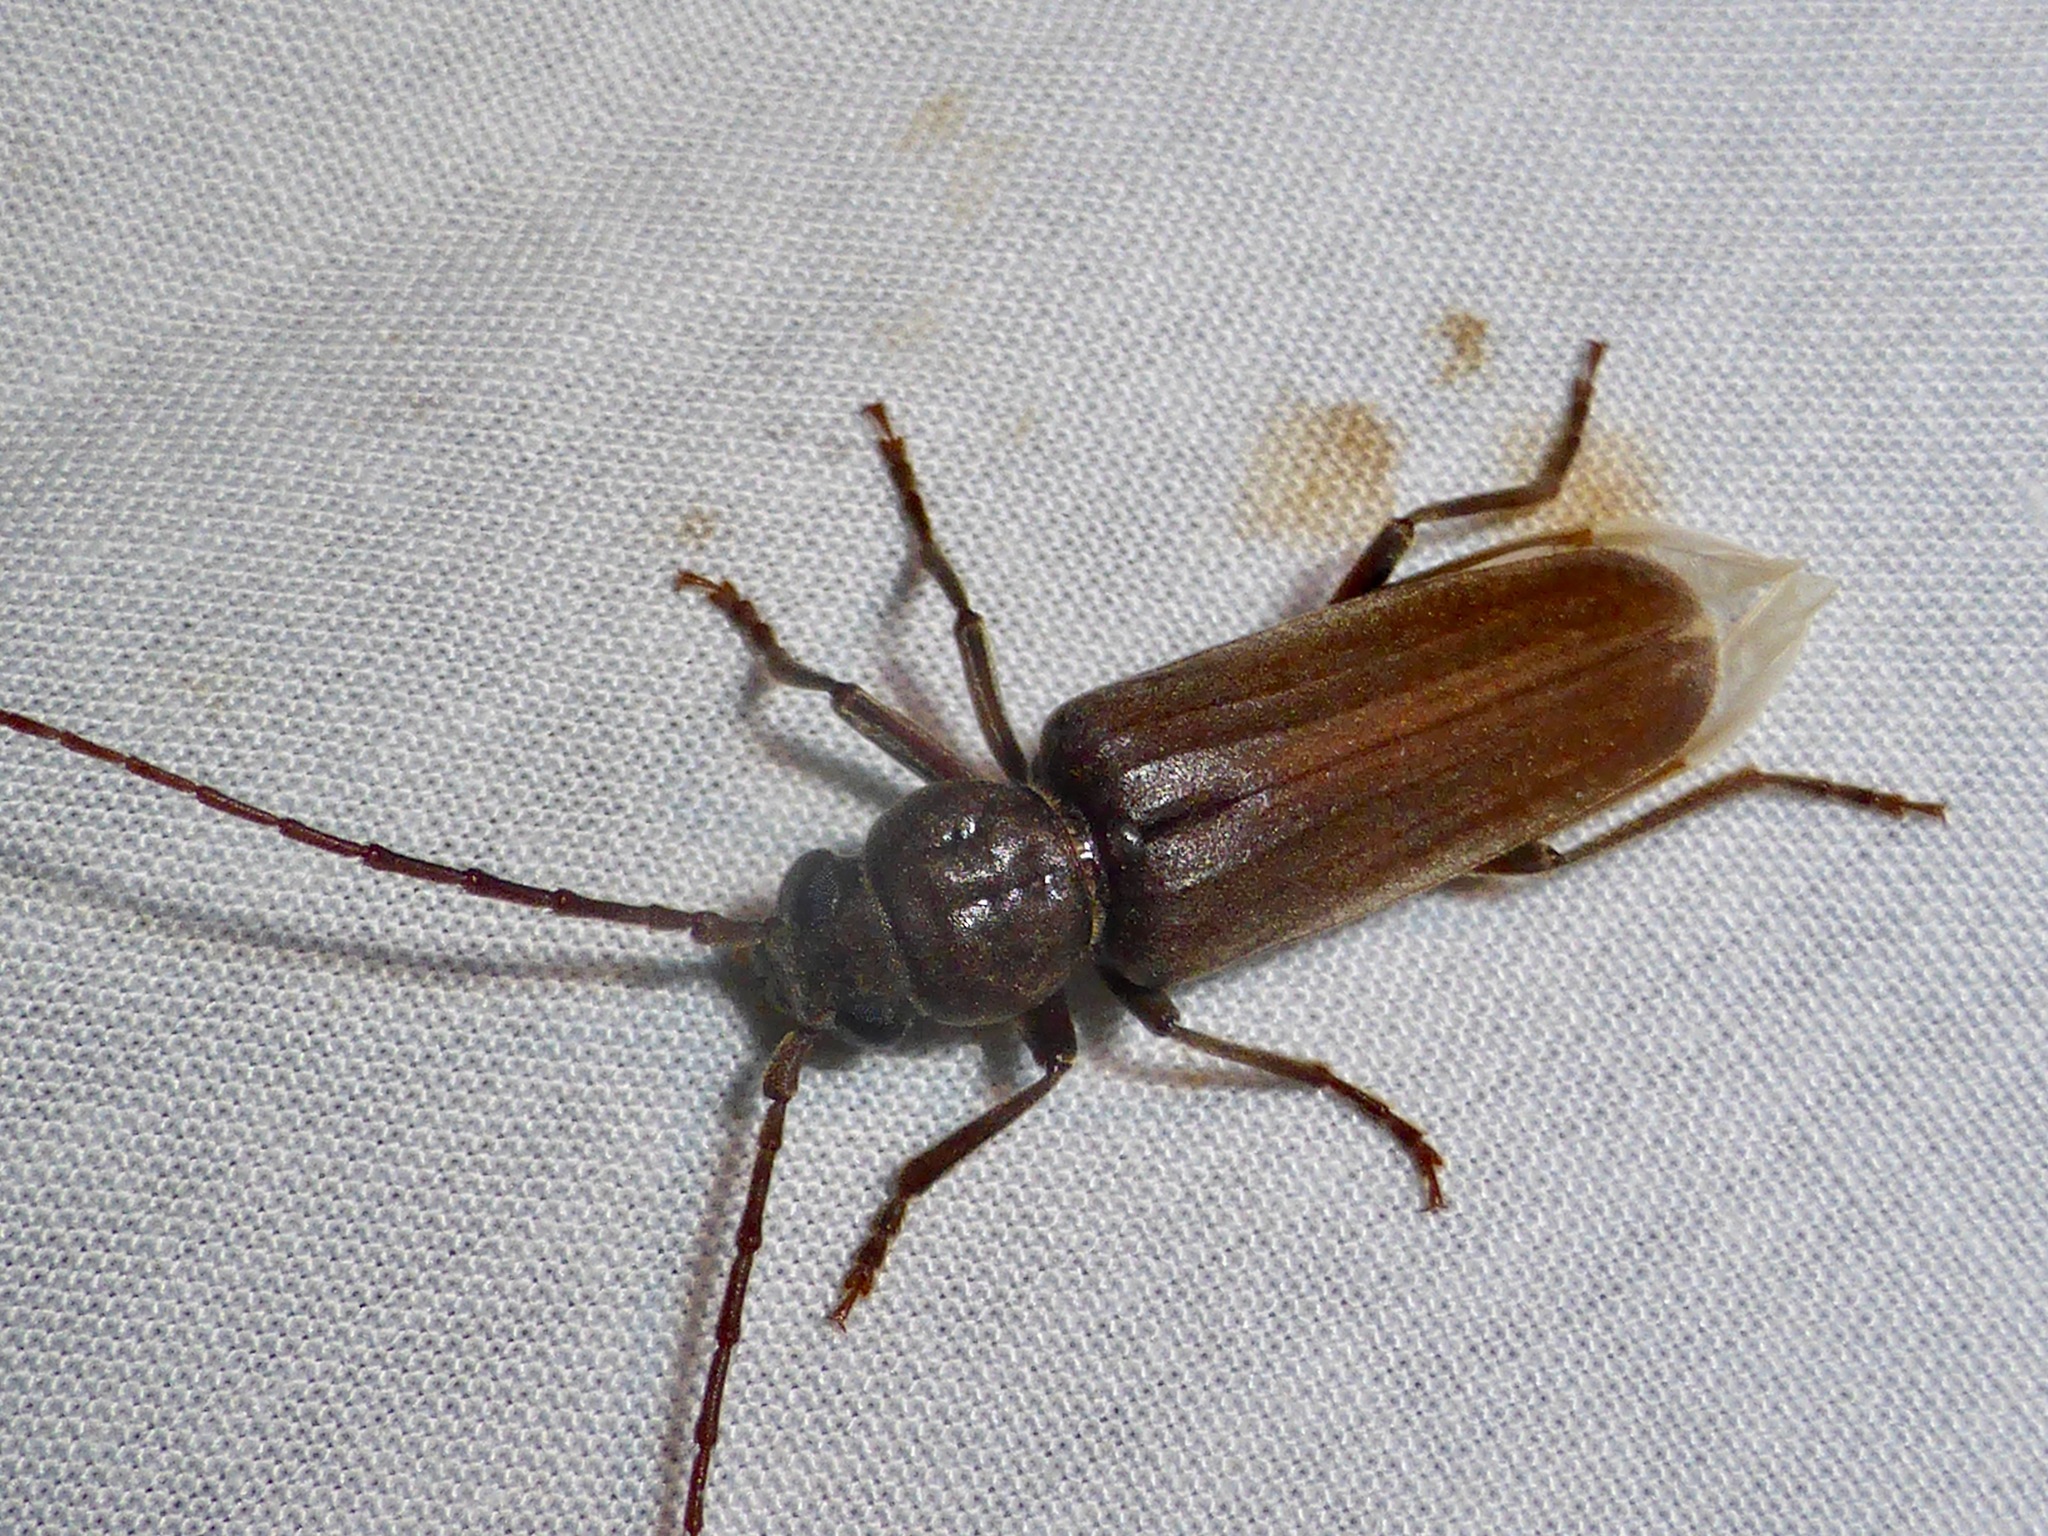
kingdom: Animalia
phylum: Arthropoda
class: Insecta
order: Coleoptera
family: Cerambycidae
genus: Arhopalus
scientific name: Arhopalus ferus
